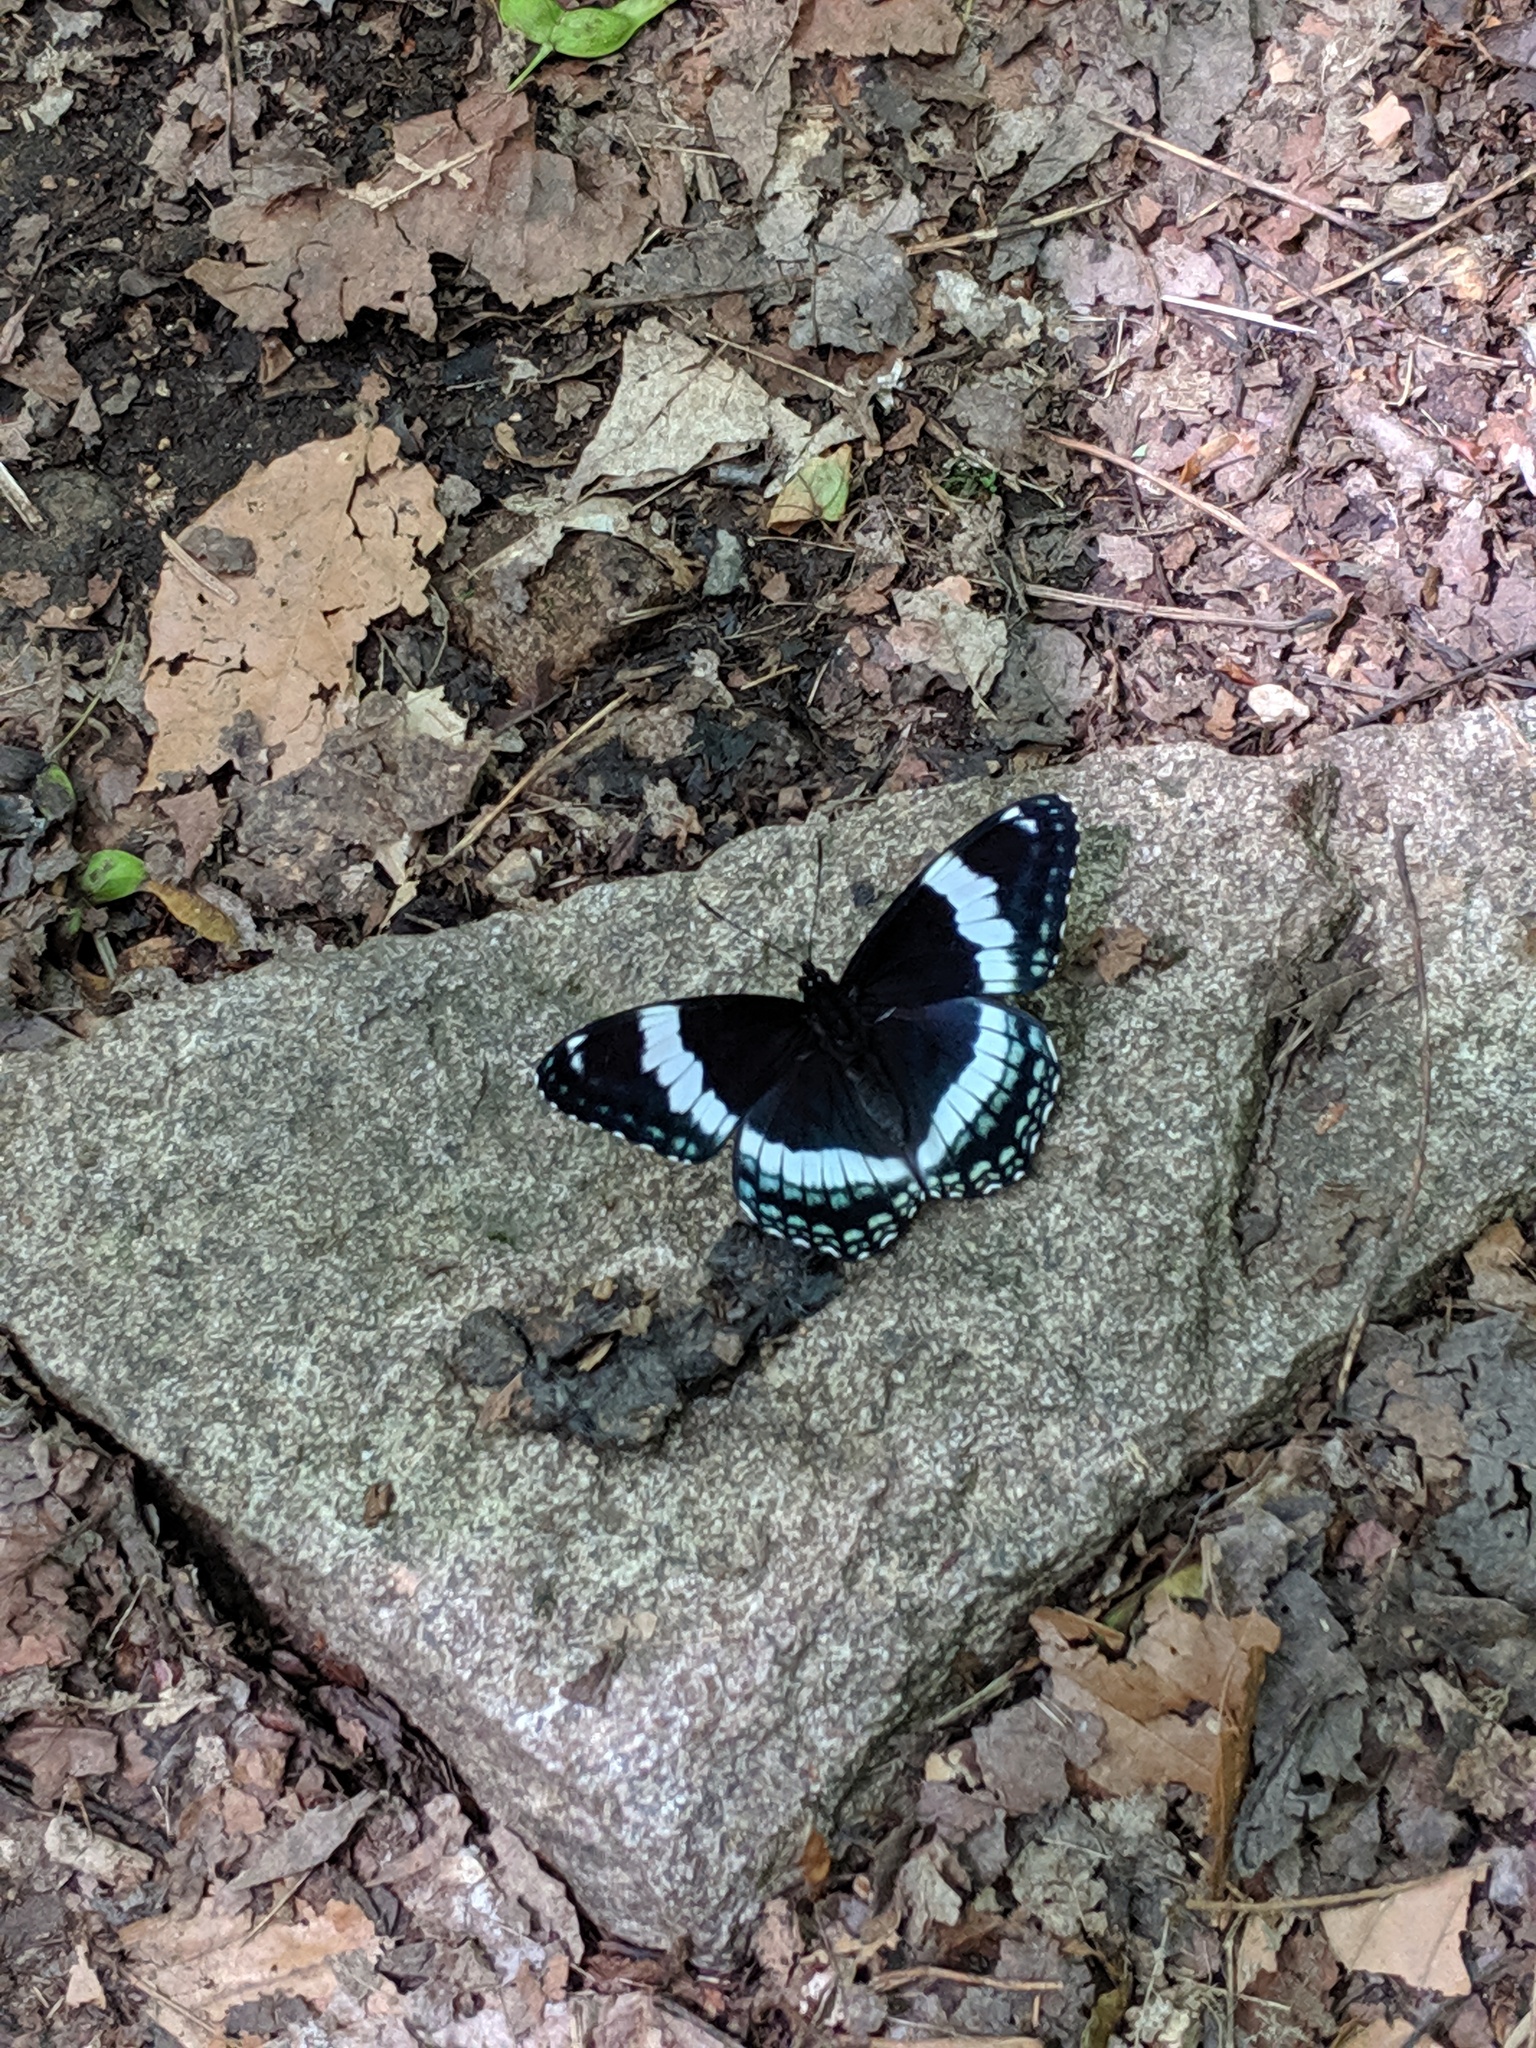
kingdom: Animalia
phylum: Arthropoda
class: Insecta
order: Lepidoptera
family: Nymphalidae
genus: Limenitis
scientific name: Limenitis arthemis
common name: Red-spotted admiral
